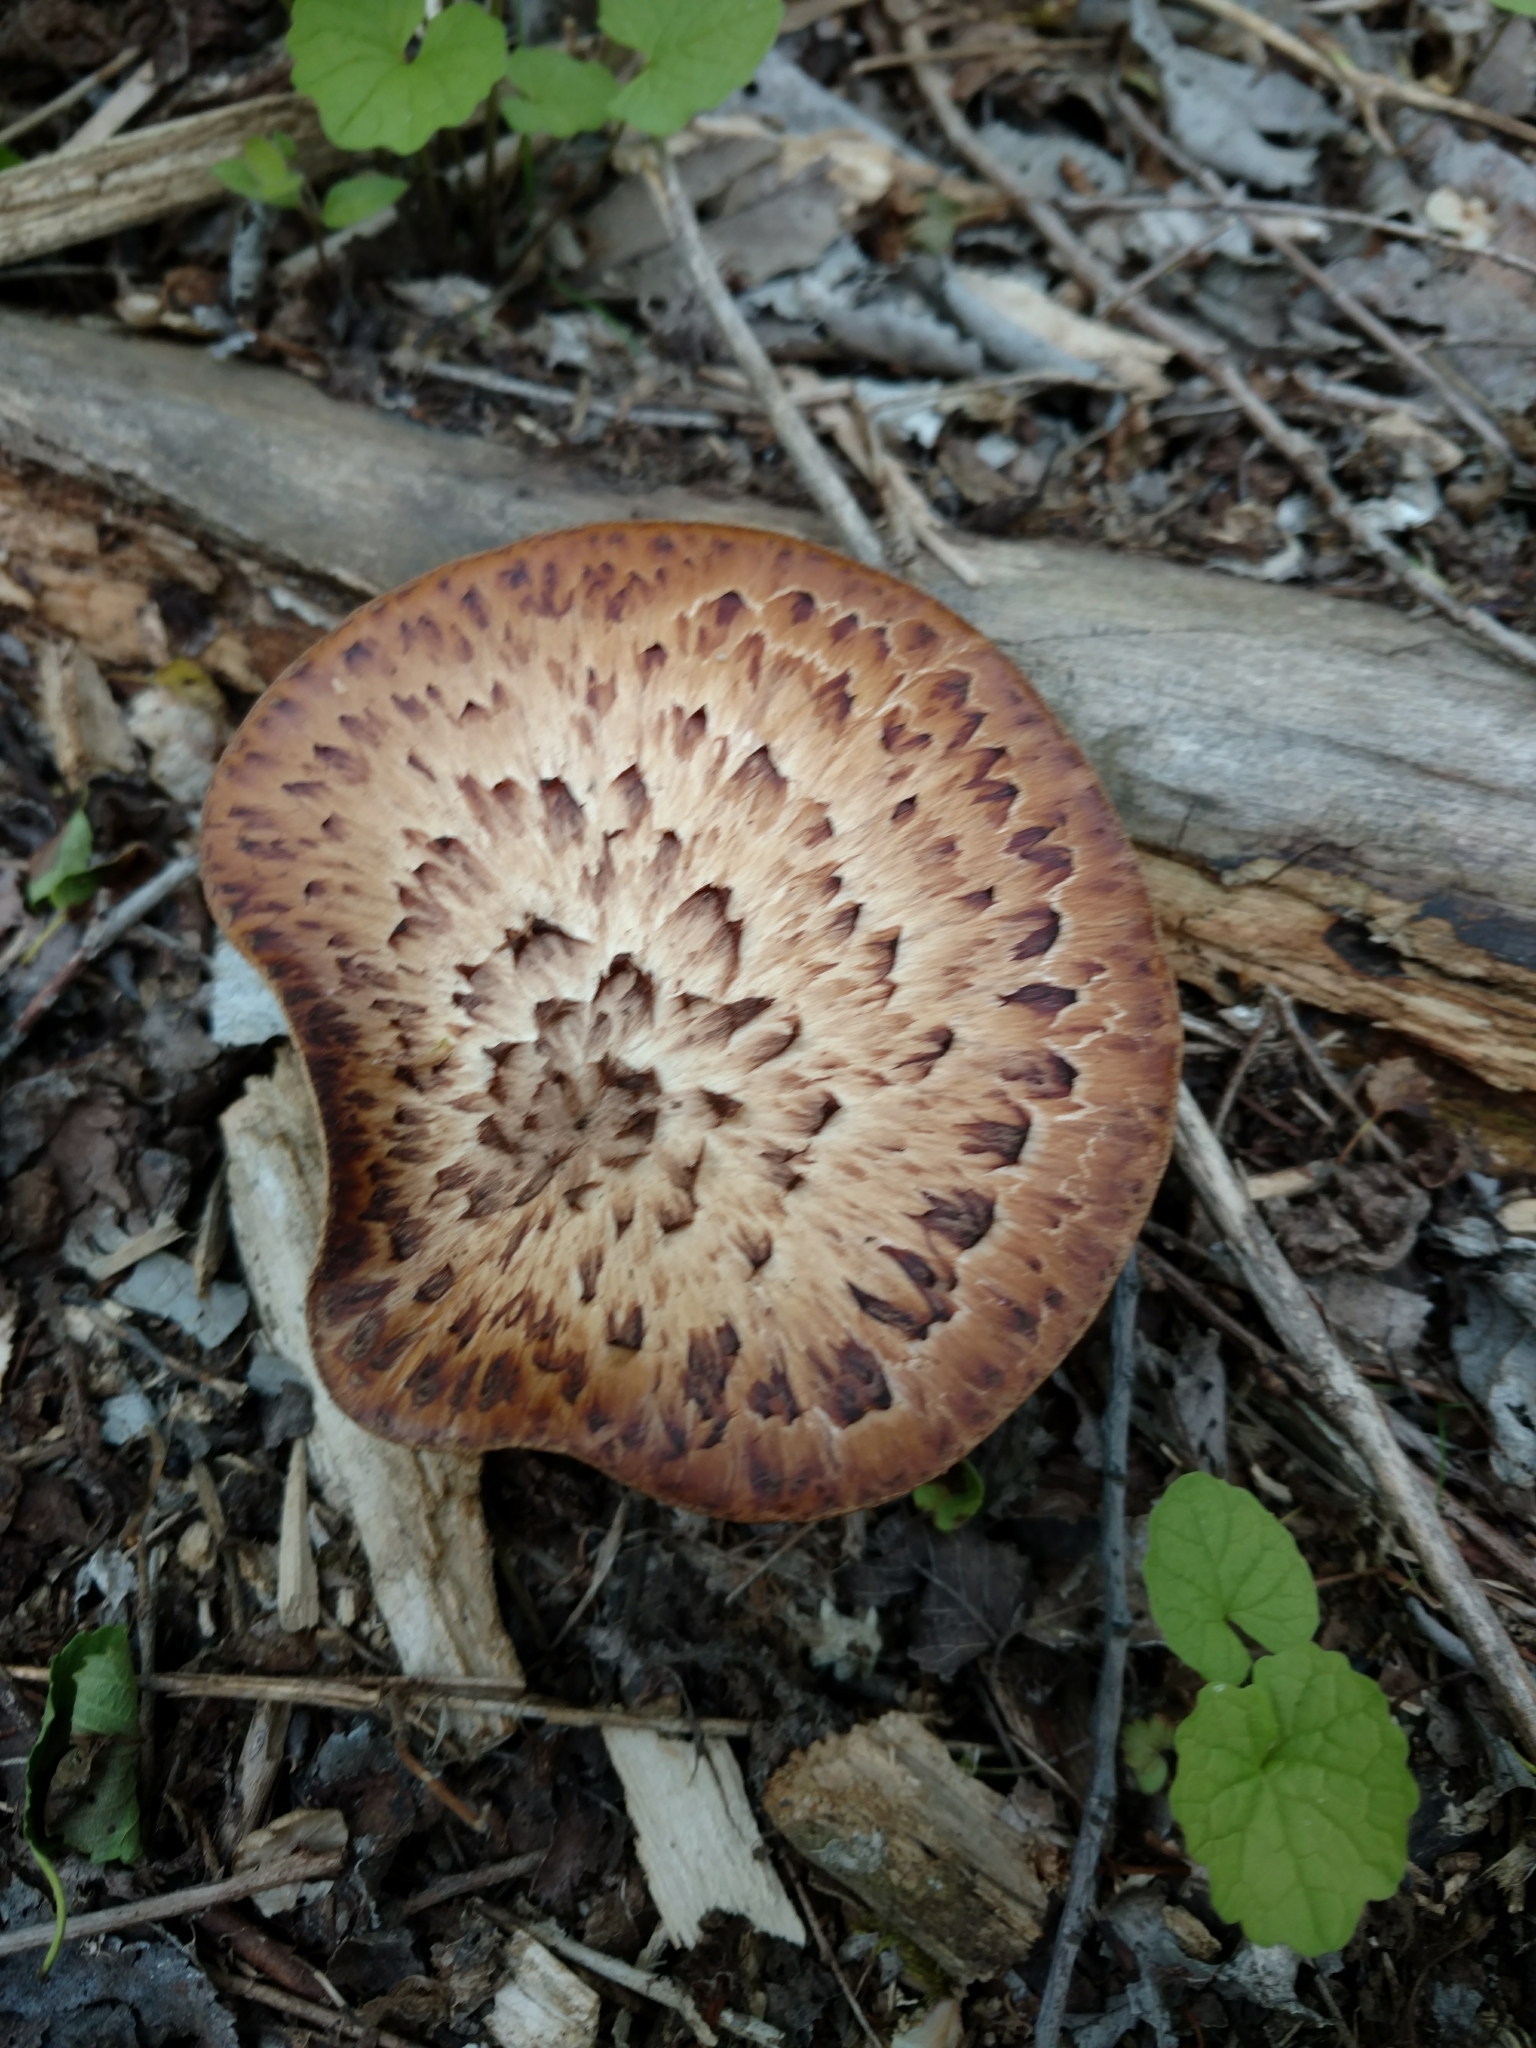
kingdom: Fungi
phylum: Basidiomycota
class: Agaricomycetes
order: Polyporales
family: Polyporaceae
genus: Cerioporus
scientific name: Cerioporus squamosus
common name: Dryad's saddle
